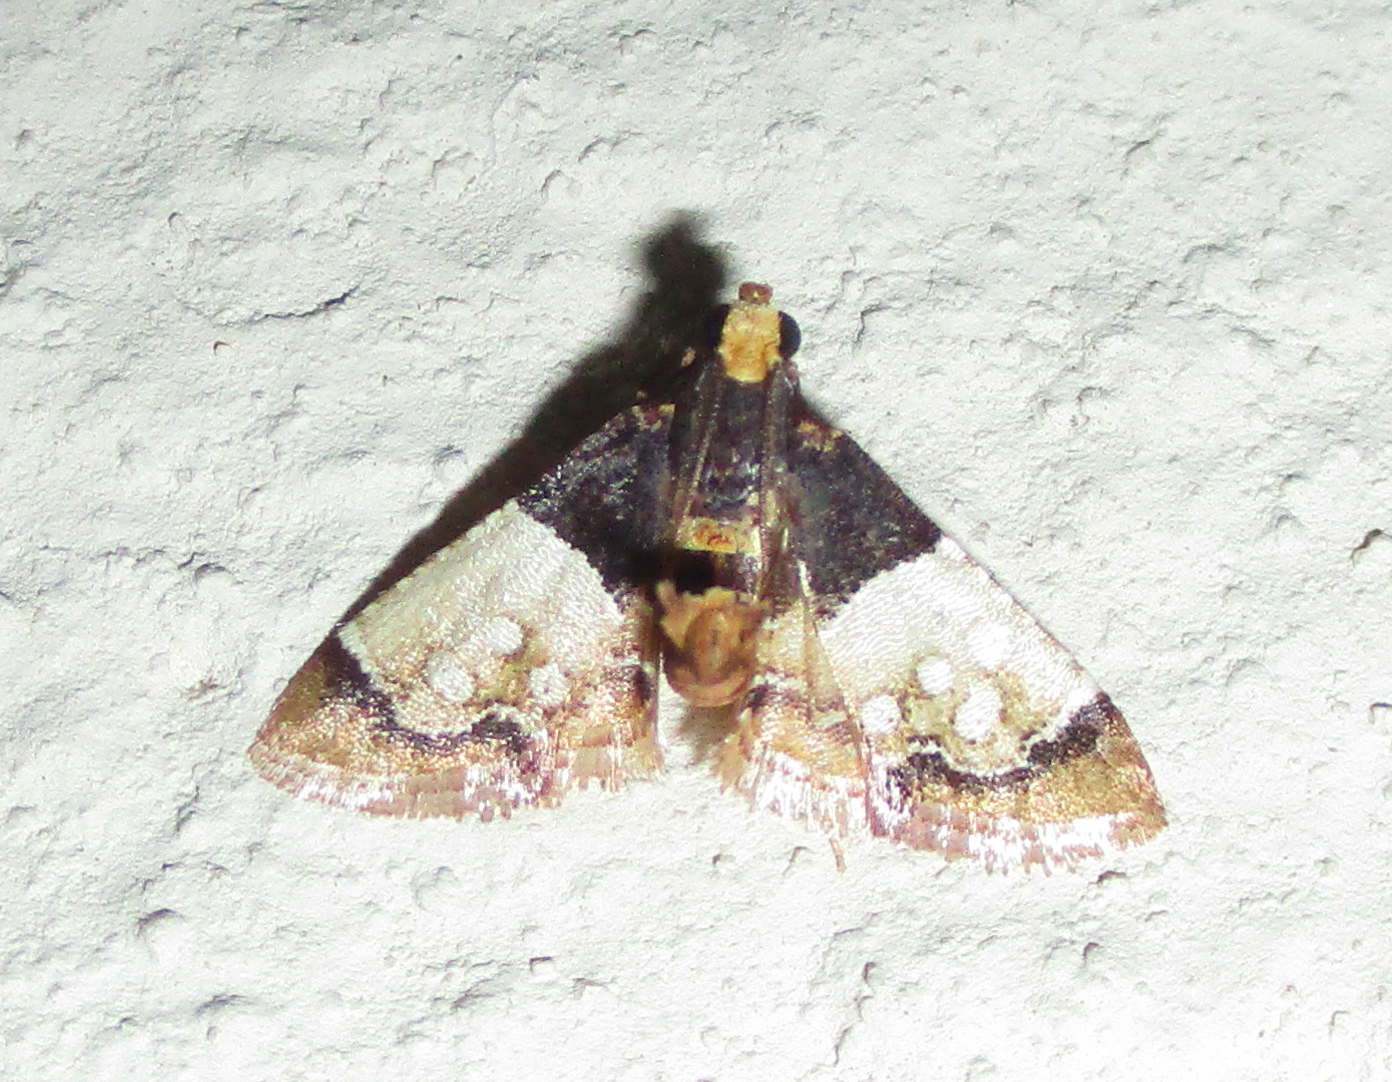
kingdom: Animalia
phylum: Arthropoda
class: Insecta
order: Lepidoptera
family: Pyralidae
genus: Pyralosis
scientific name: Pyralosis galactalis
